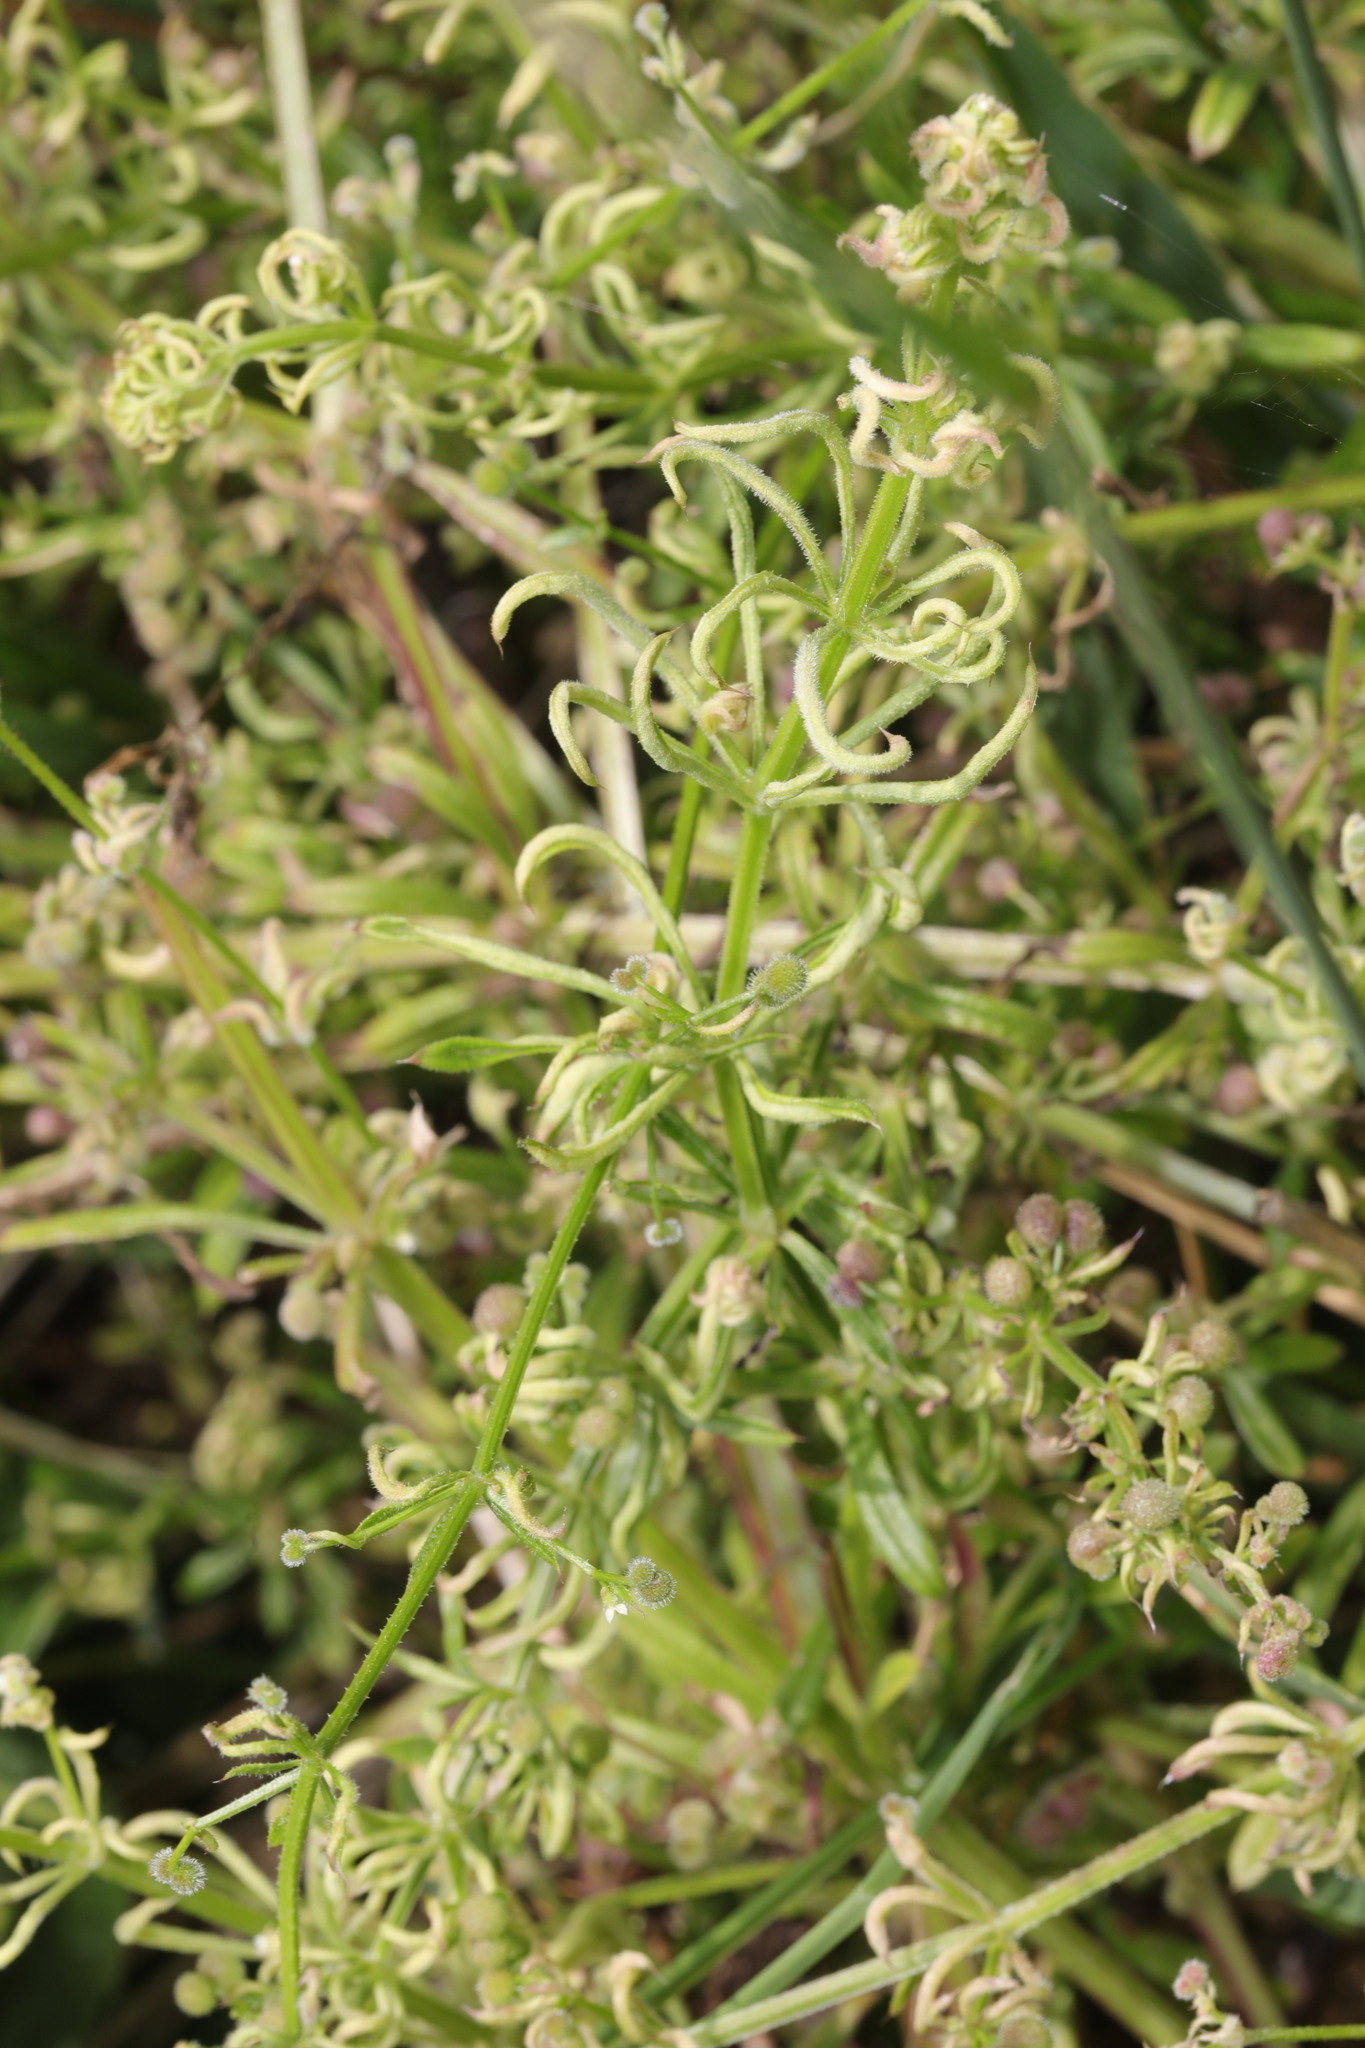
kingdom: Animalia
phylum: Arthropoda
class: Arachnida
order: Trombidiformes
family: Eriophyidae
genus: Cecidophyes
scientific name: Cecidophyes rouhollahi
